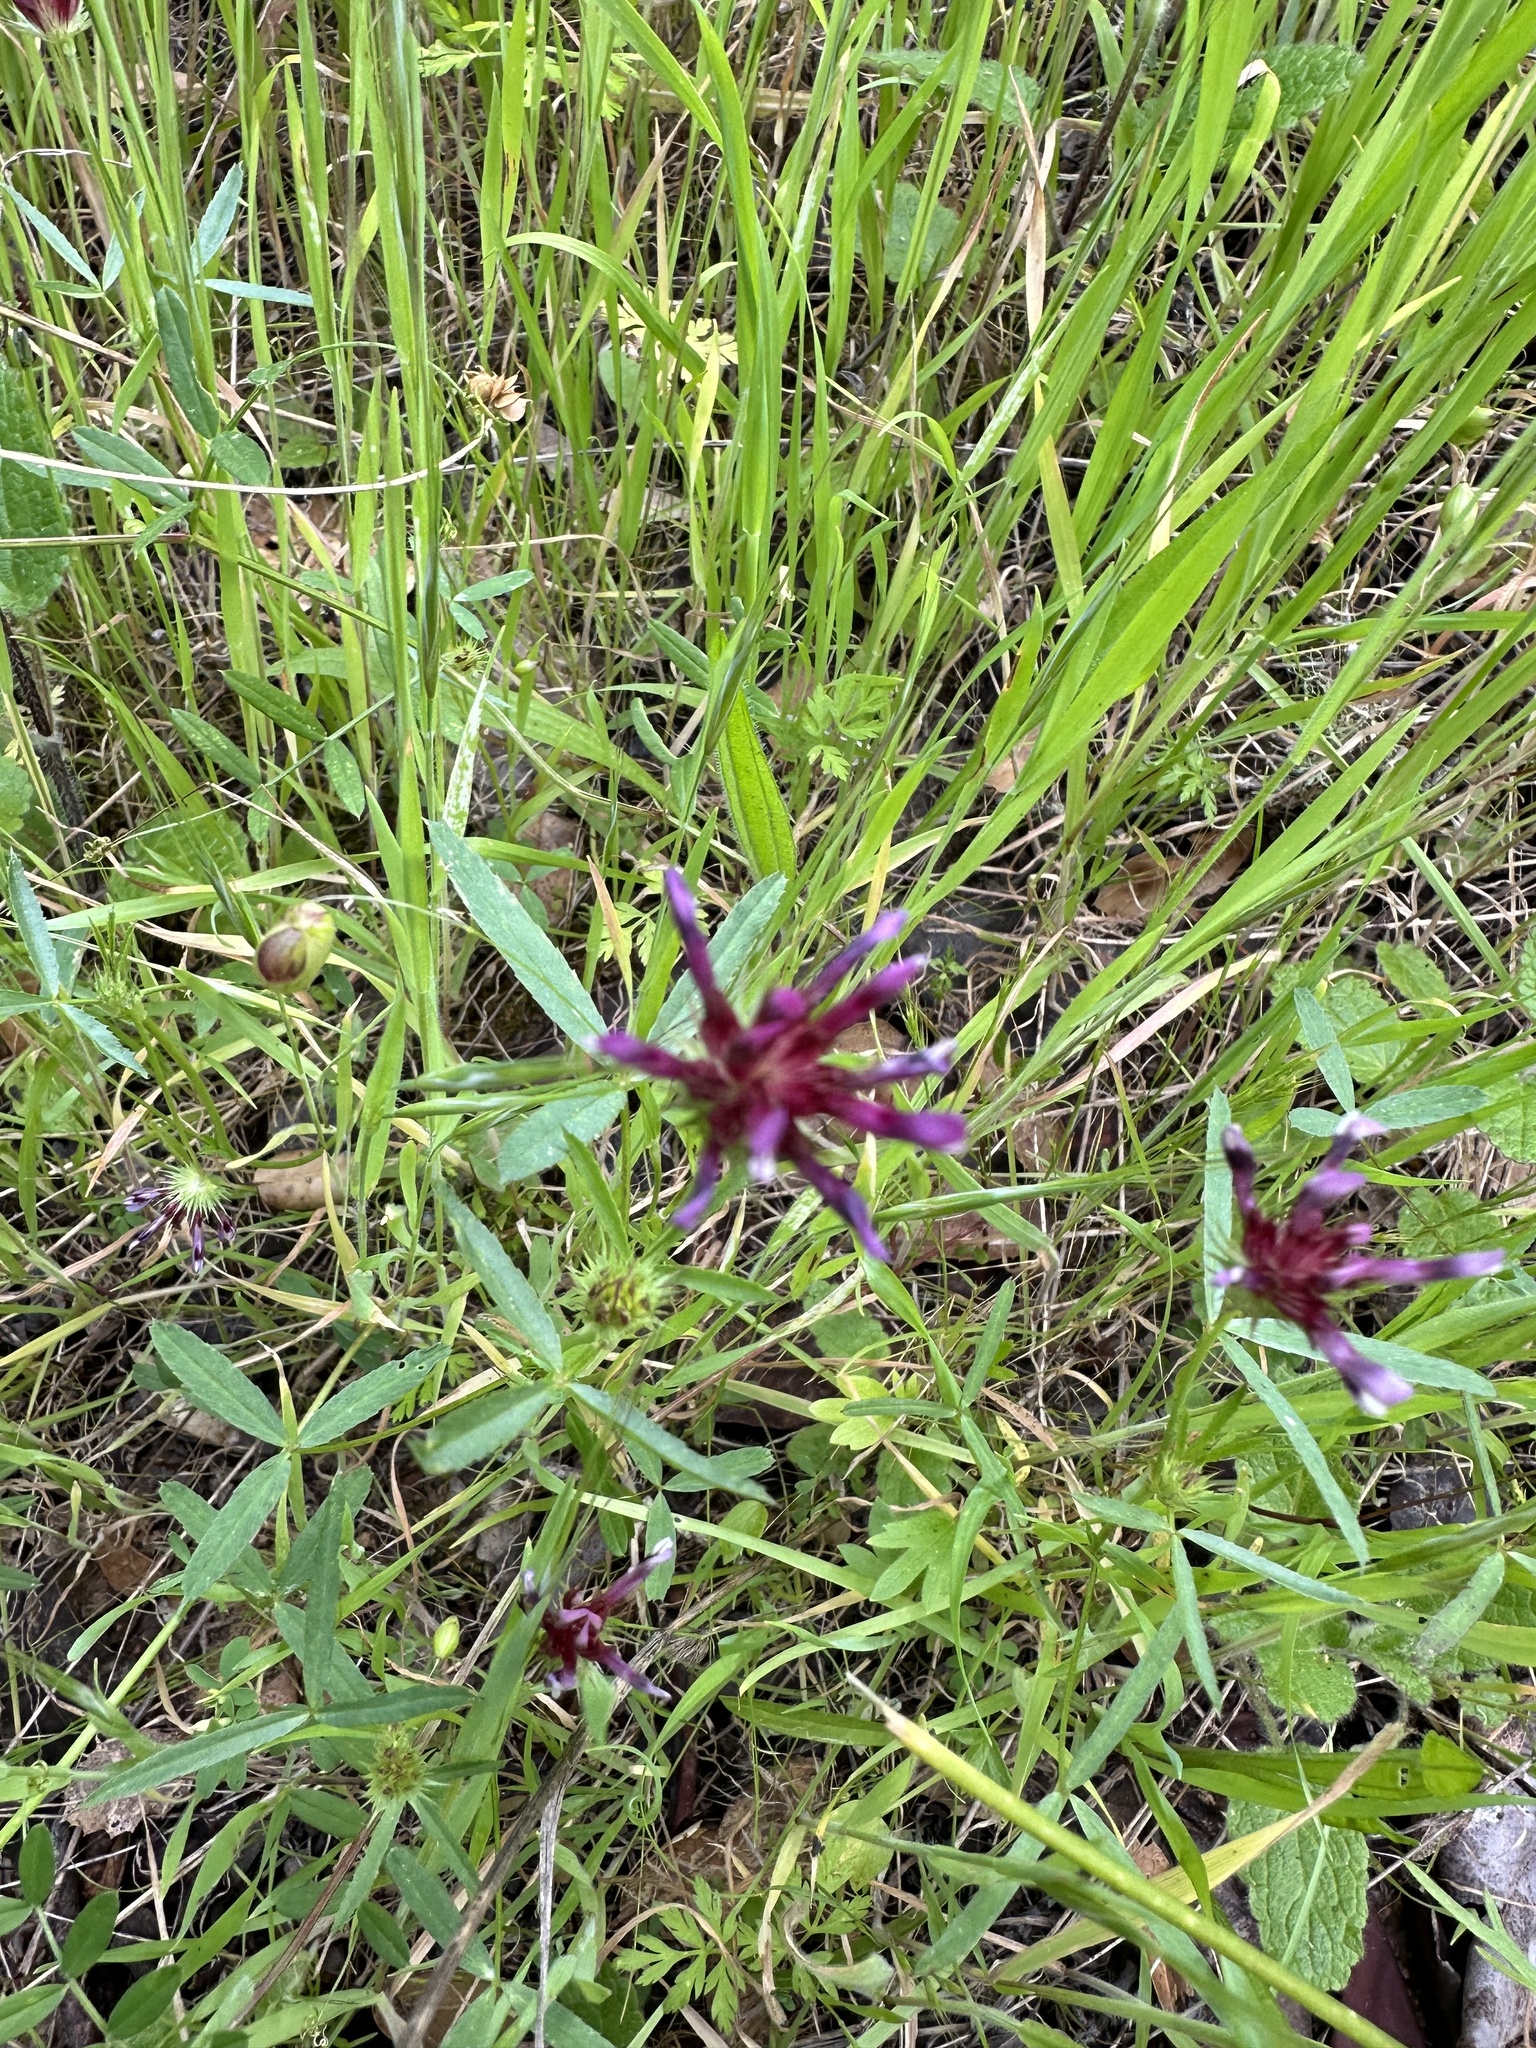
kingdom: Plantae
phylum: Tracheophyta
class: Magnoliopsida
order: Fabales
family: Fabaceae
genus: Trifolium
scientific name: Trifolium willdenovii
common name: Tomcat clover
